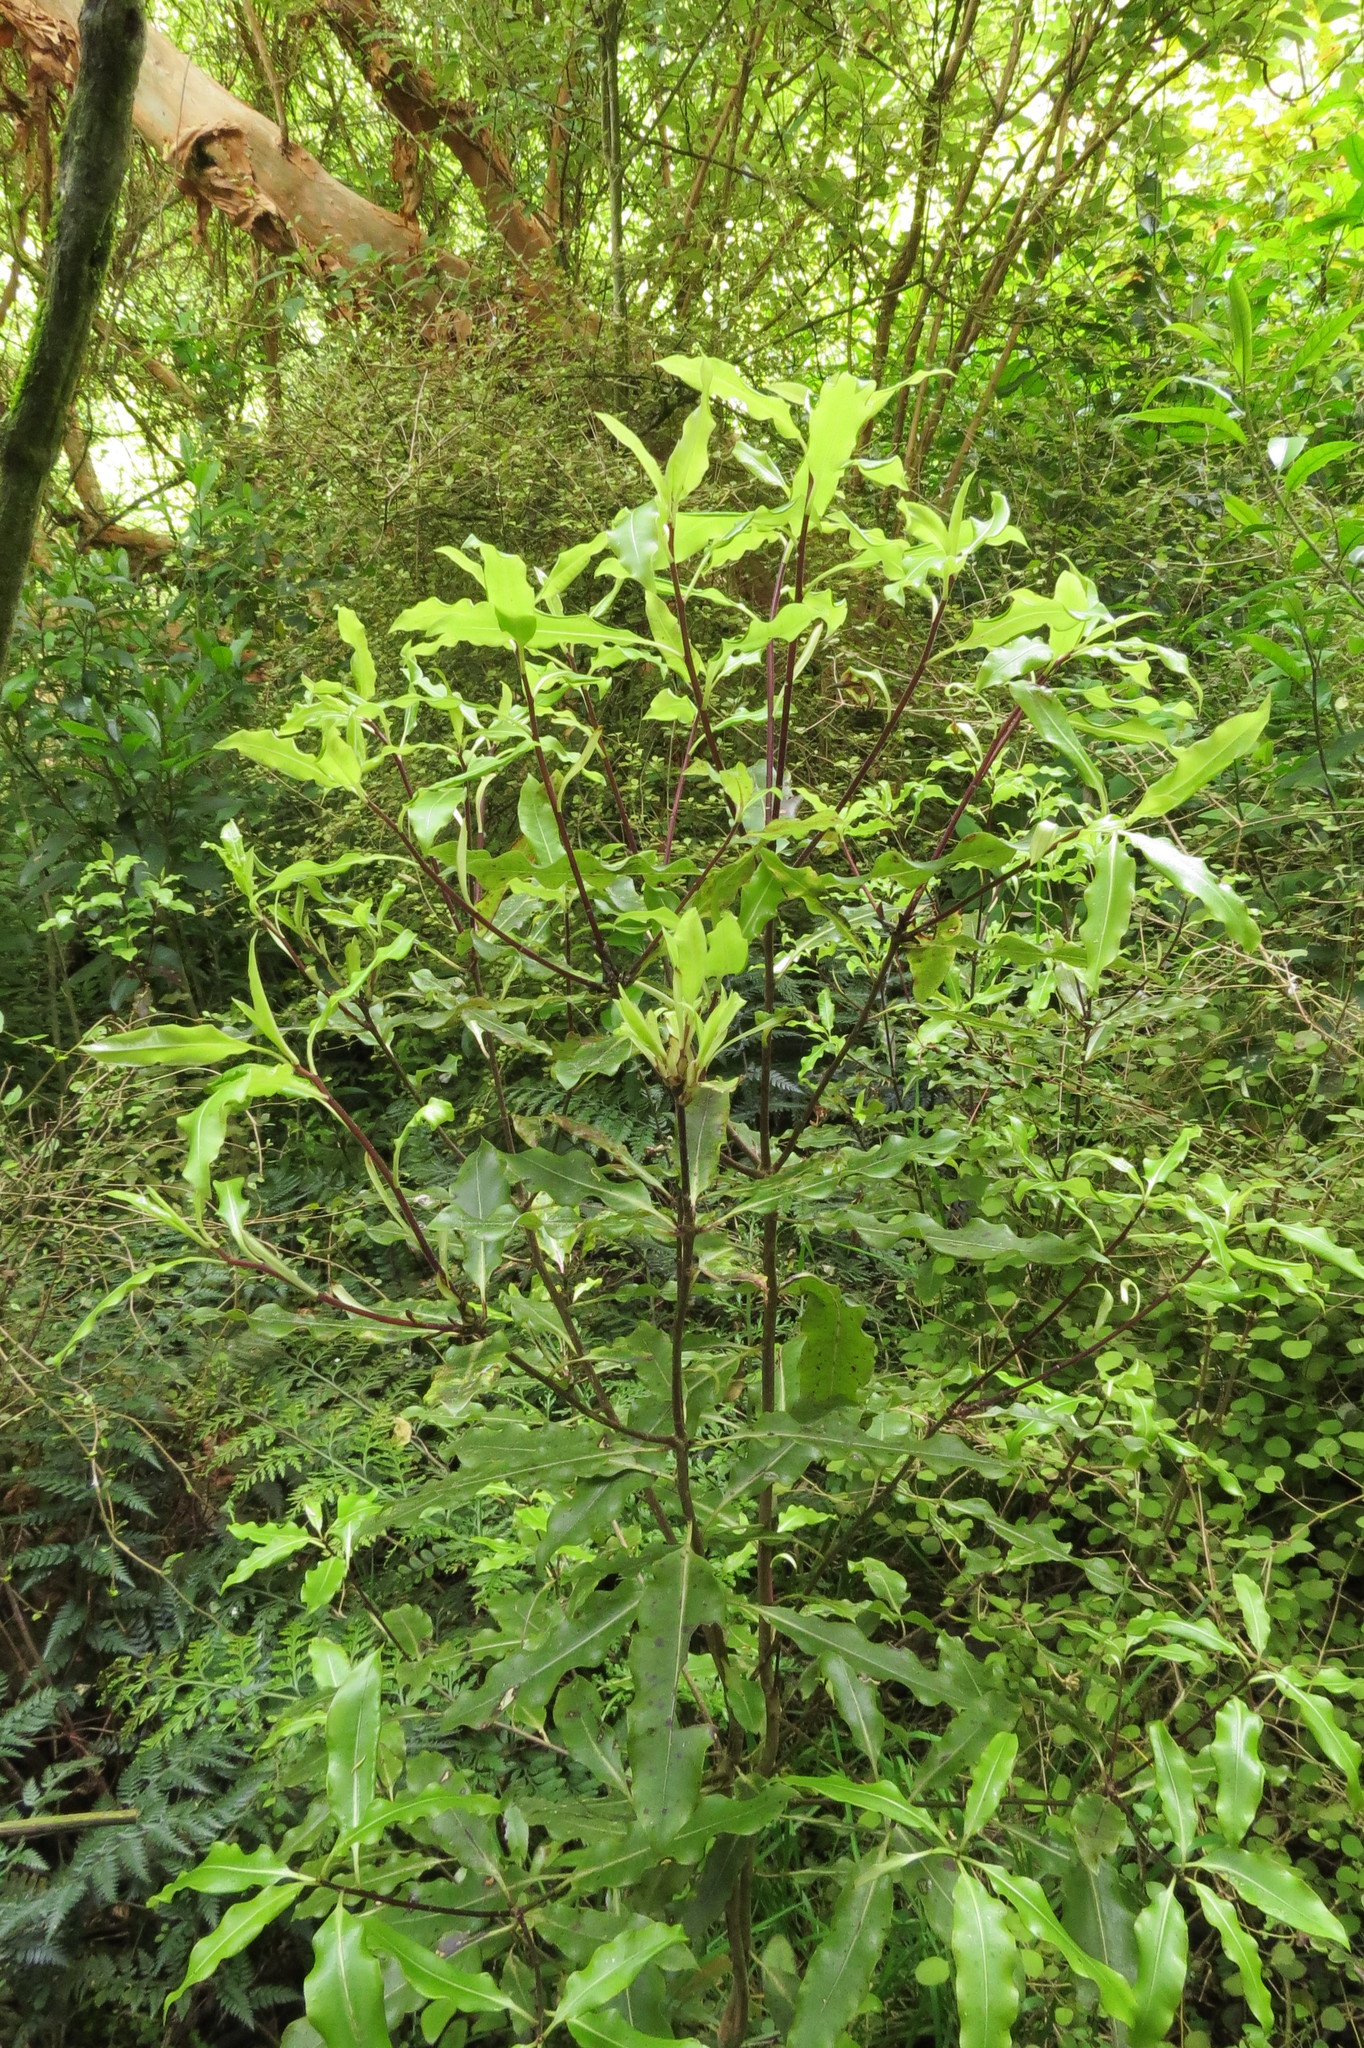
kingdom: Plantae
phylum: Tracheophyta
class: Magnoliopsida
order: Apiales
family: Pittosporaceae
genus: Pittosporum
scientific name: Pittosporum eugenioides
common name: Lemonwood
